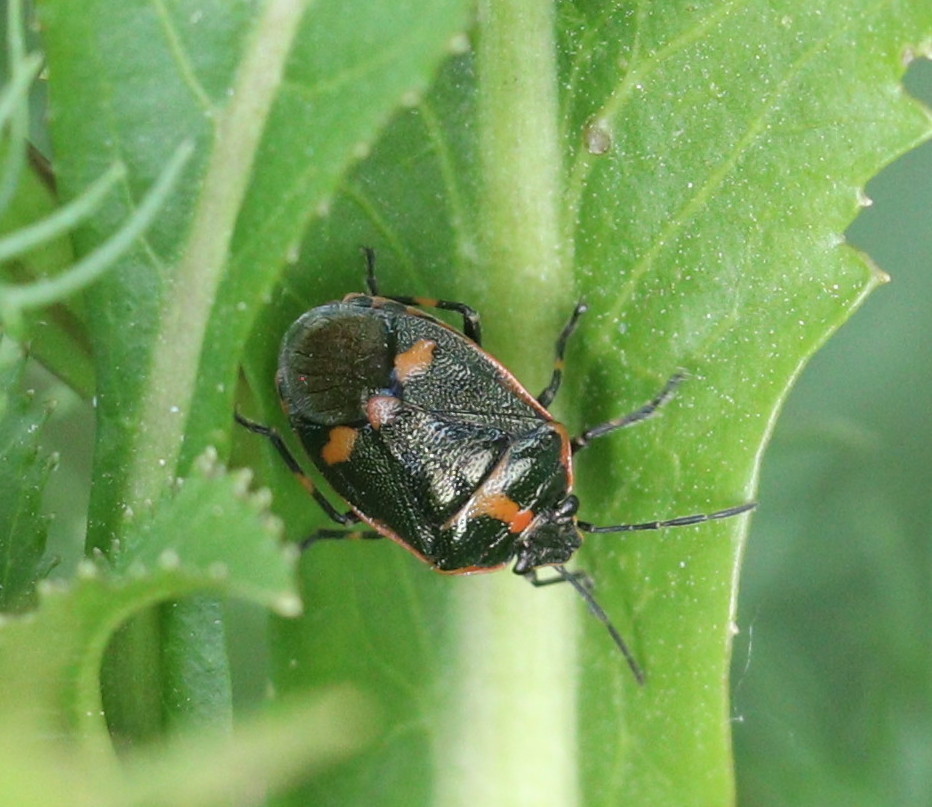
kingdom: Animalia
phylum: Arthropoda
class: Insecta
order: Hemiptera
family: Pentatomidae
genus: Eurydema
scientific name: Eurydema oleracea
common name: Cabbage bug
